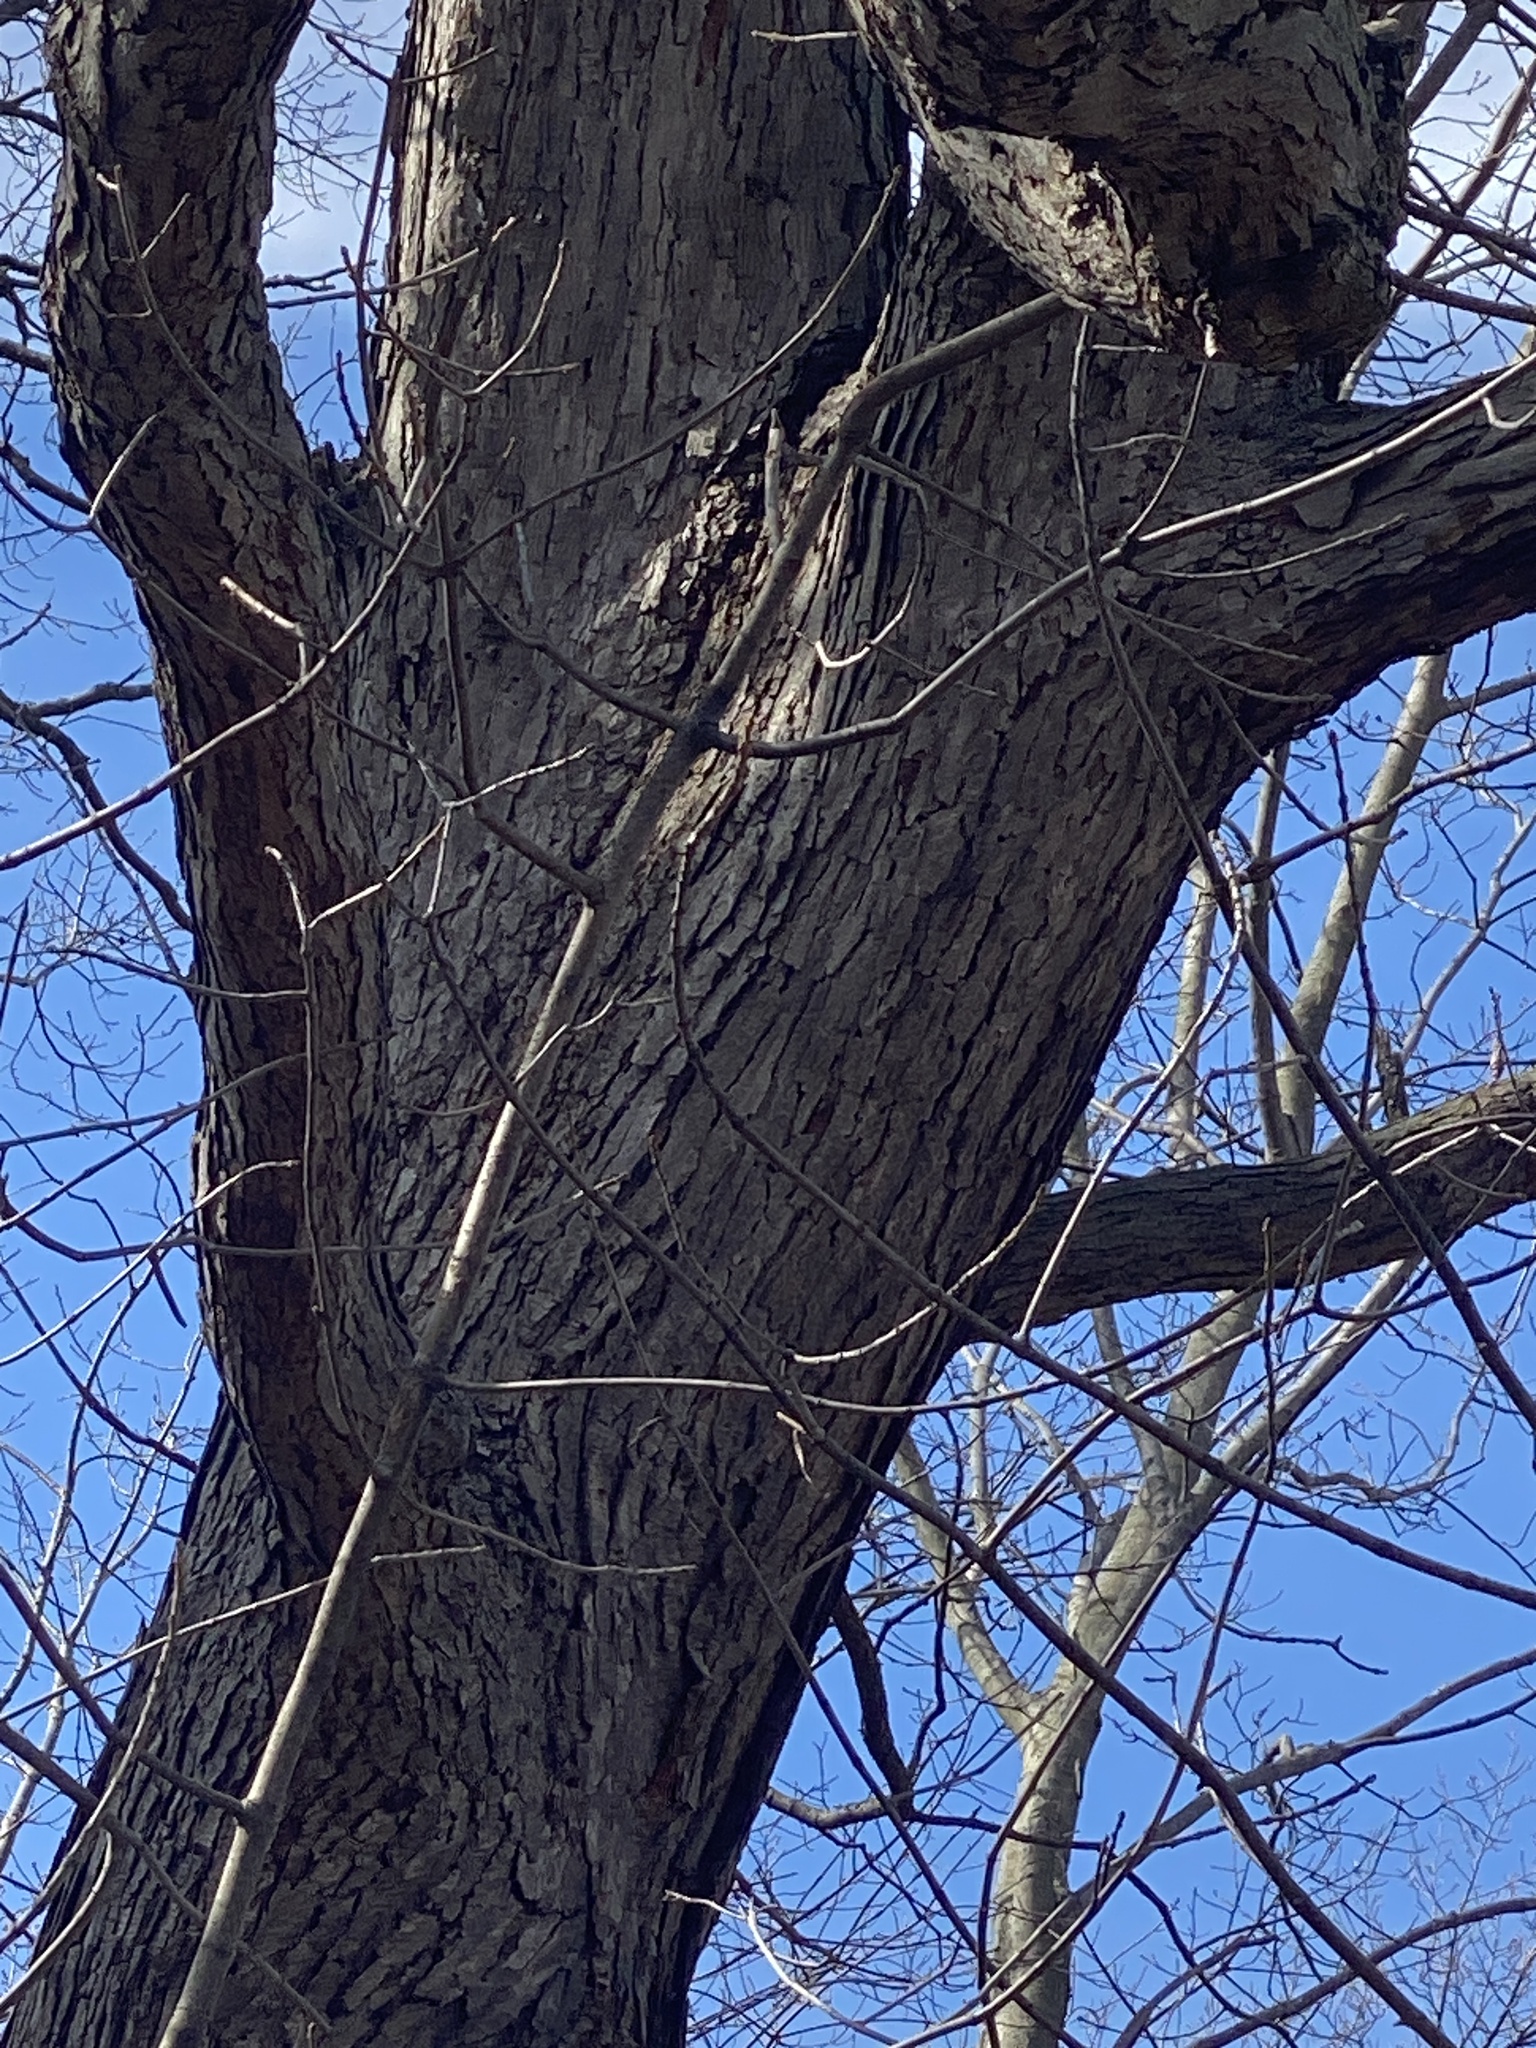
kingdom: Plantae
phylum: Tracheophyta
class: Magnoliopsida
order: Fagales
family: Fagaceae
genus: Quercus
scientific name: Quercus alba
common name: White oak
